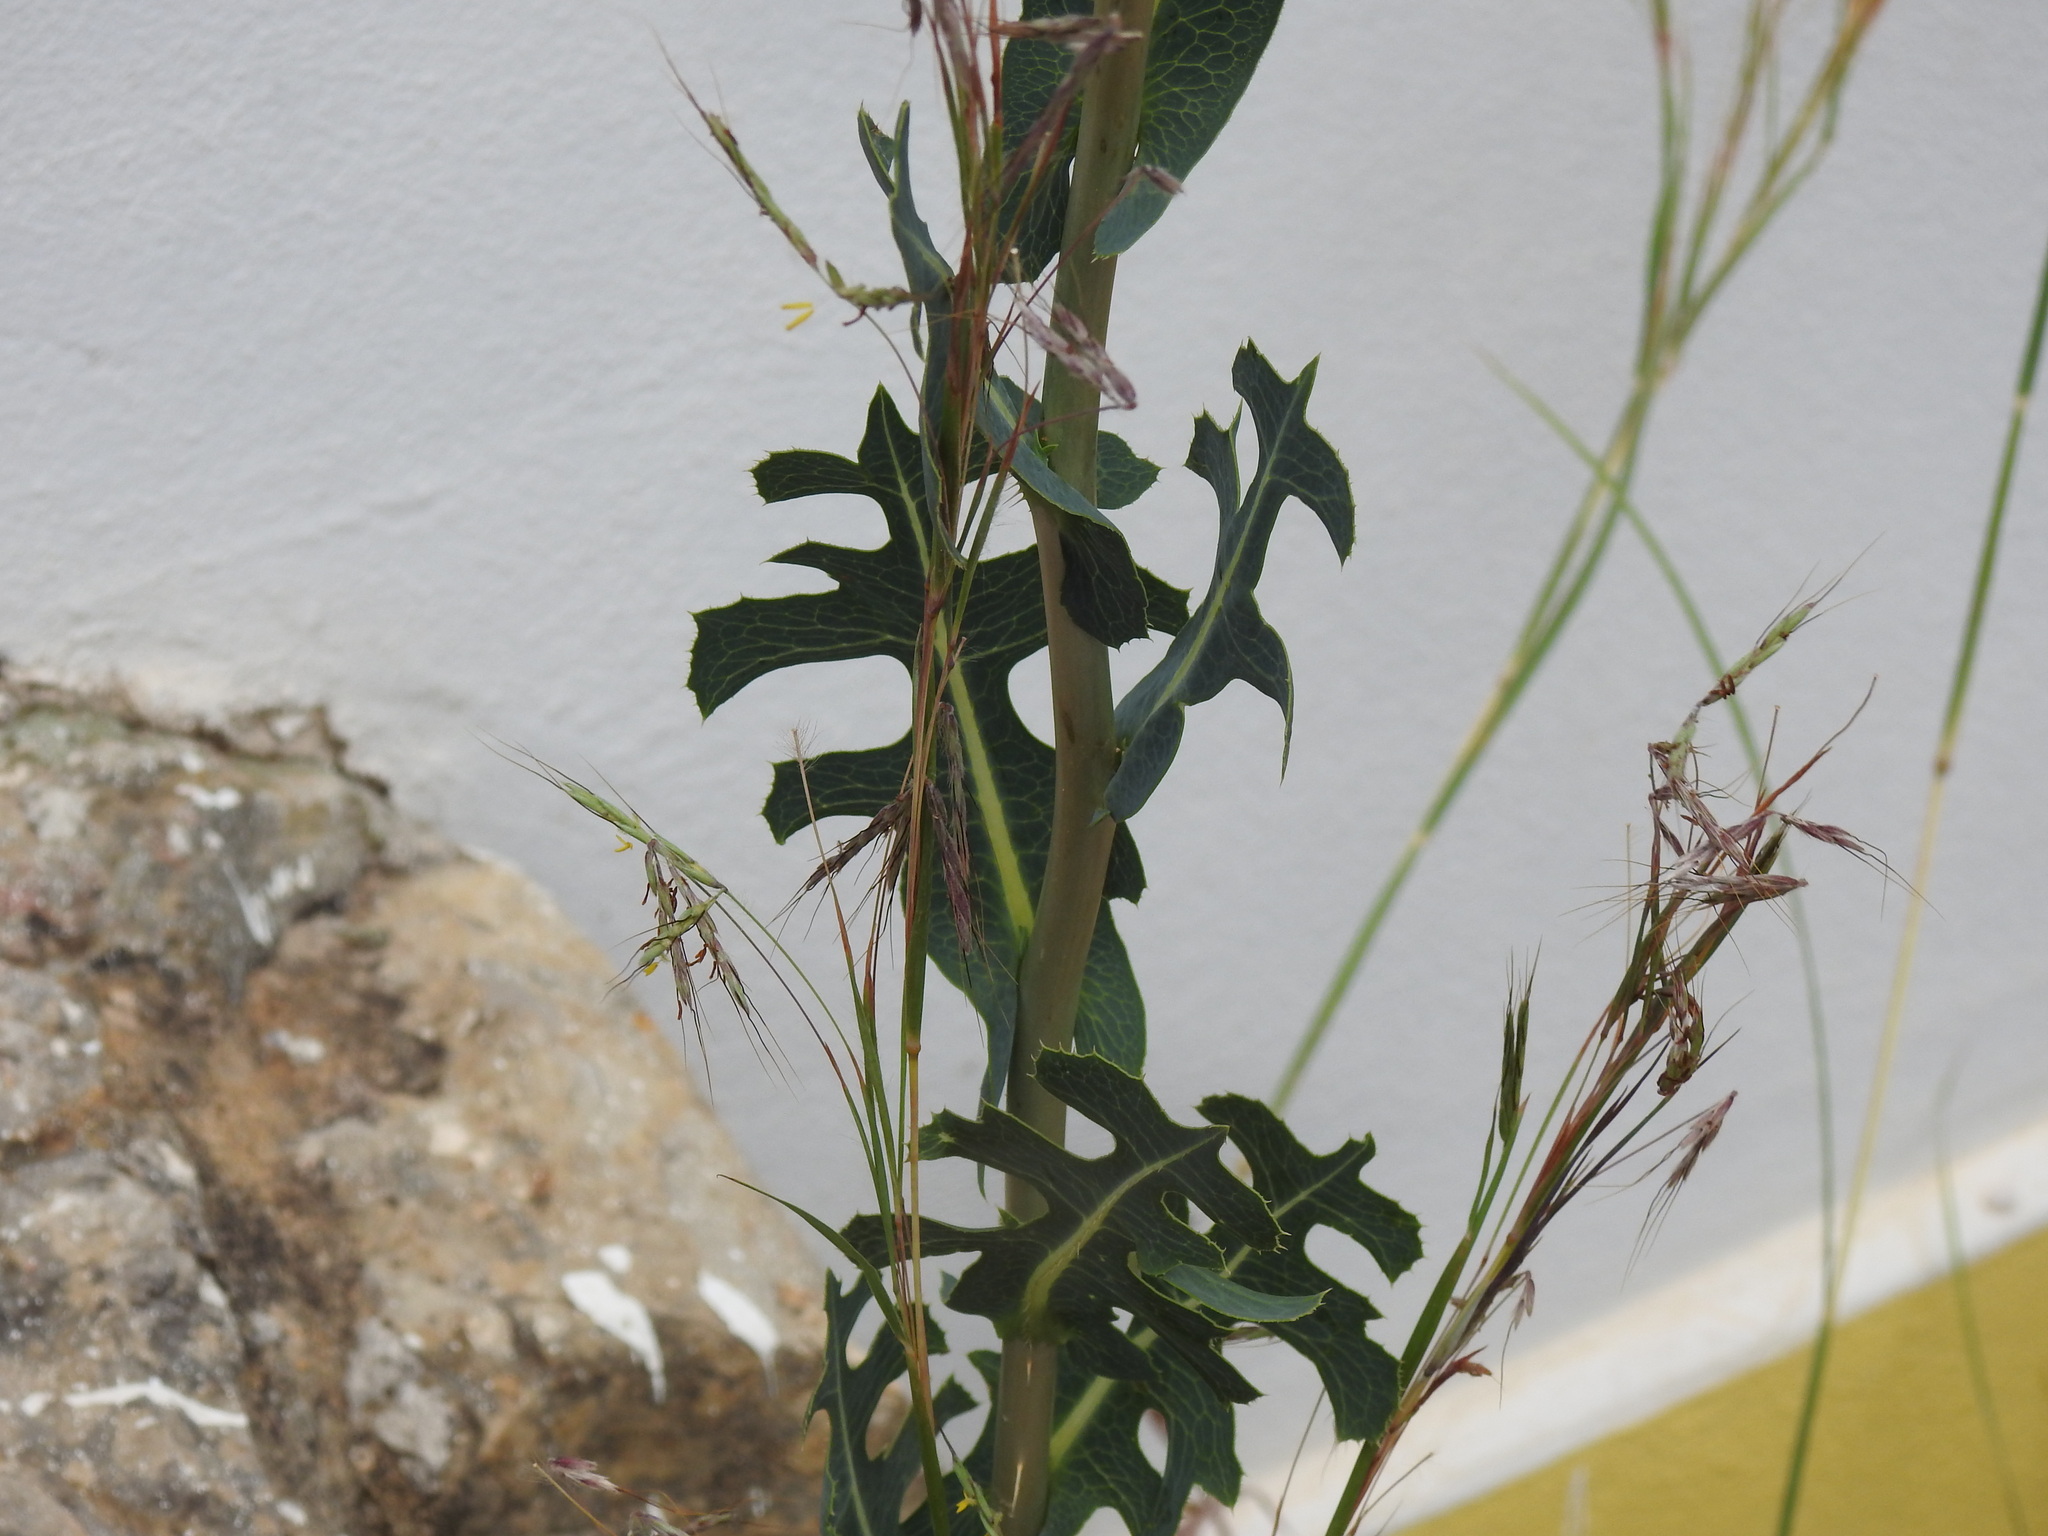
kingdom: Plantae
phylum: Tracheophyta
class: Magnoliopsida
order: Asterales
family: Asteraceae
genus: Lactuca
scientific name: Lactuca serriola
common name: Prickly lettuce
